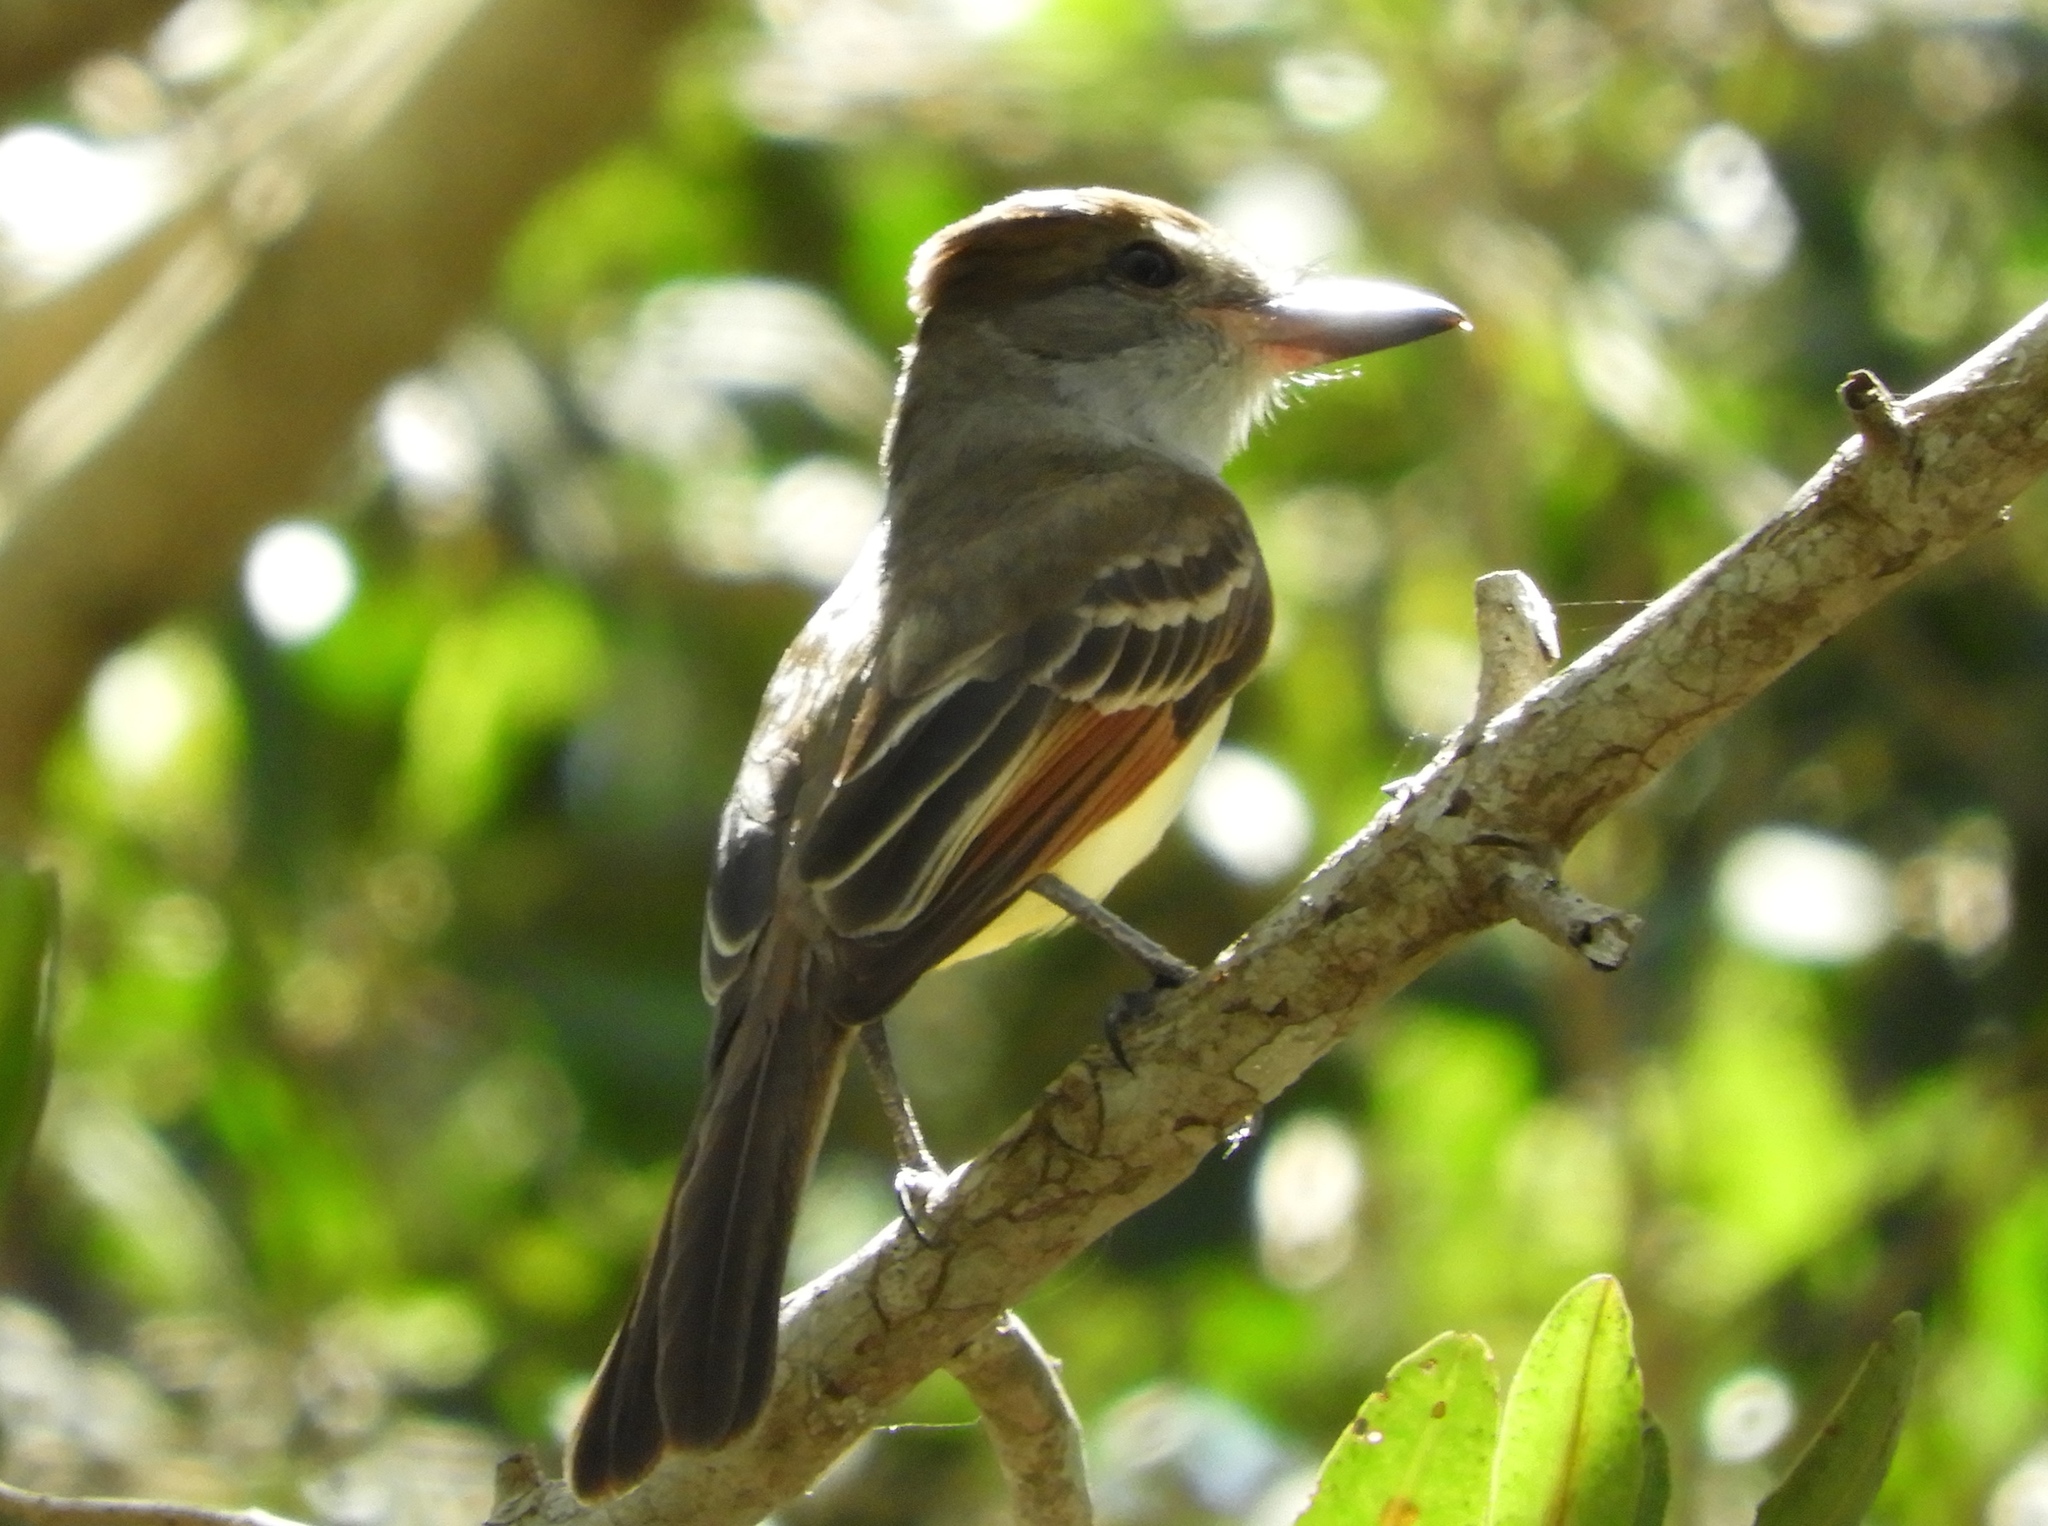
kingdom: Animalia
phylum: Chordata
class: Aves
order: Passeriformes
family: Tyrannidae
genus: Myiarchus
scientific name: Myiarchus
